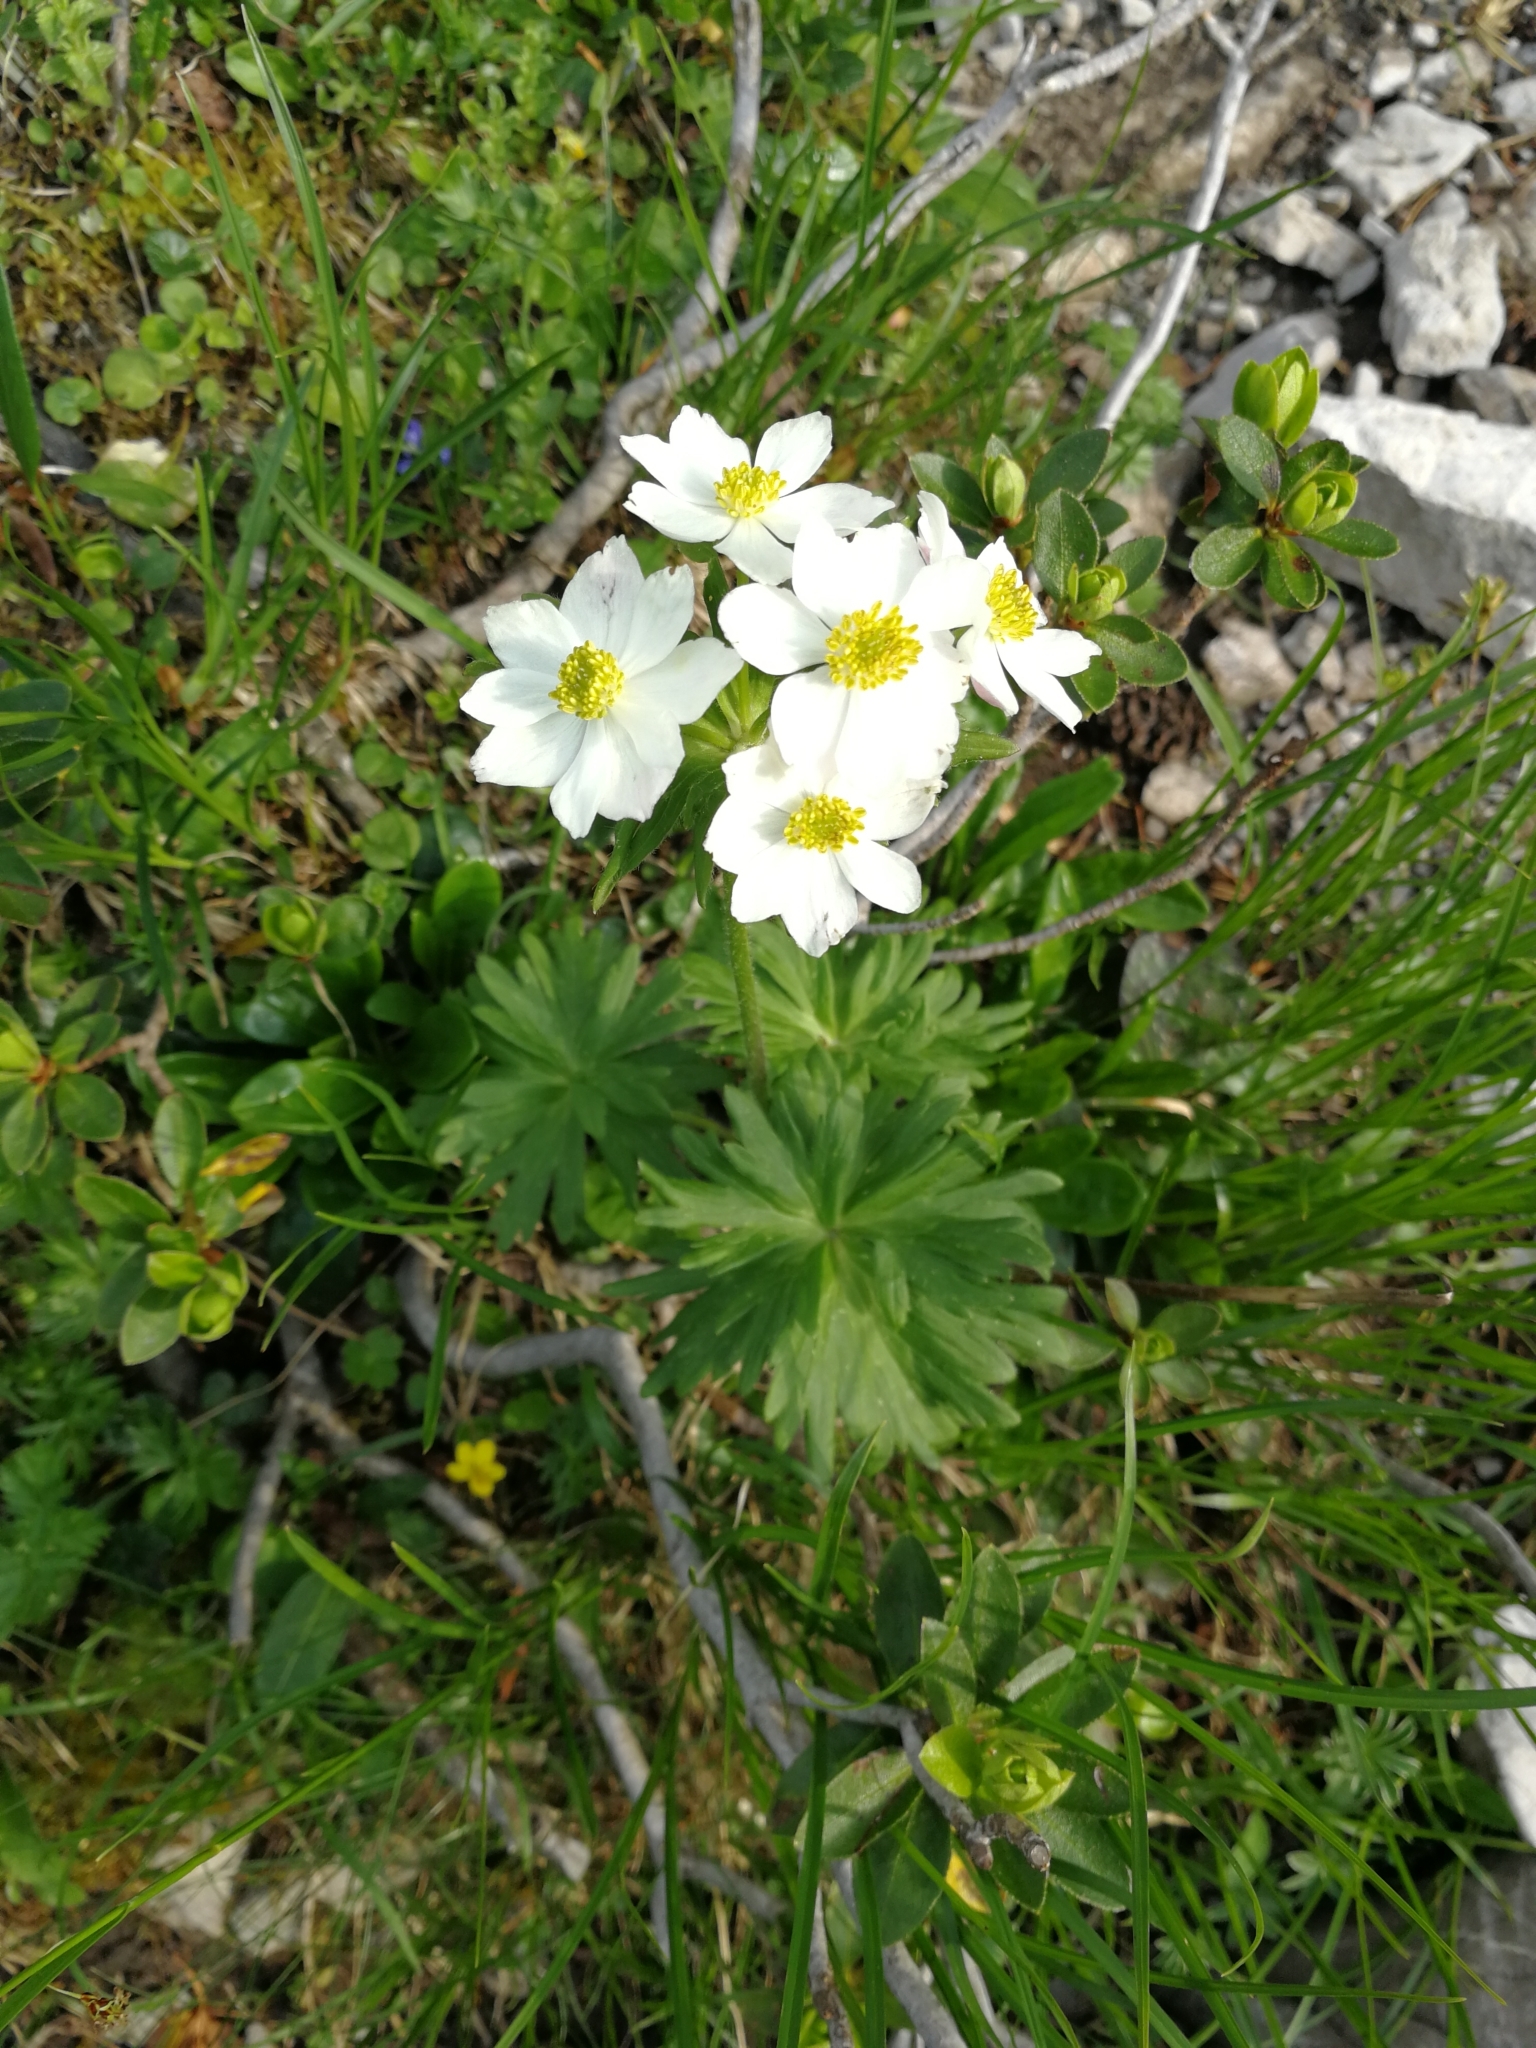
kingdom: Plantae
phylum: Tracheophyta
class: Magnoliopsida
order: Ranunculales
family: Ranunculaceae
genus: Anemonastrum
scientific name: Anemonastrum narcissiflorum
